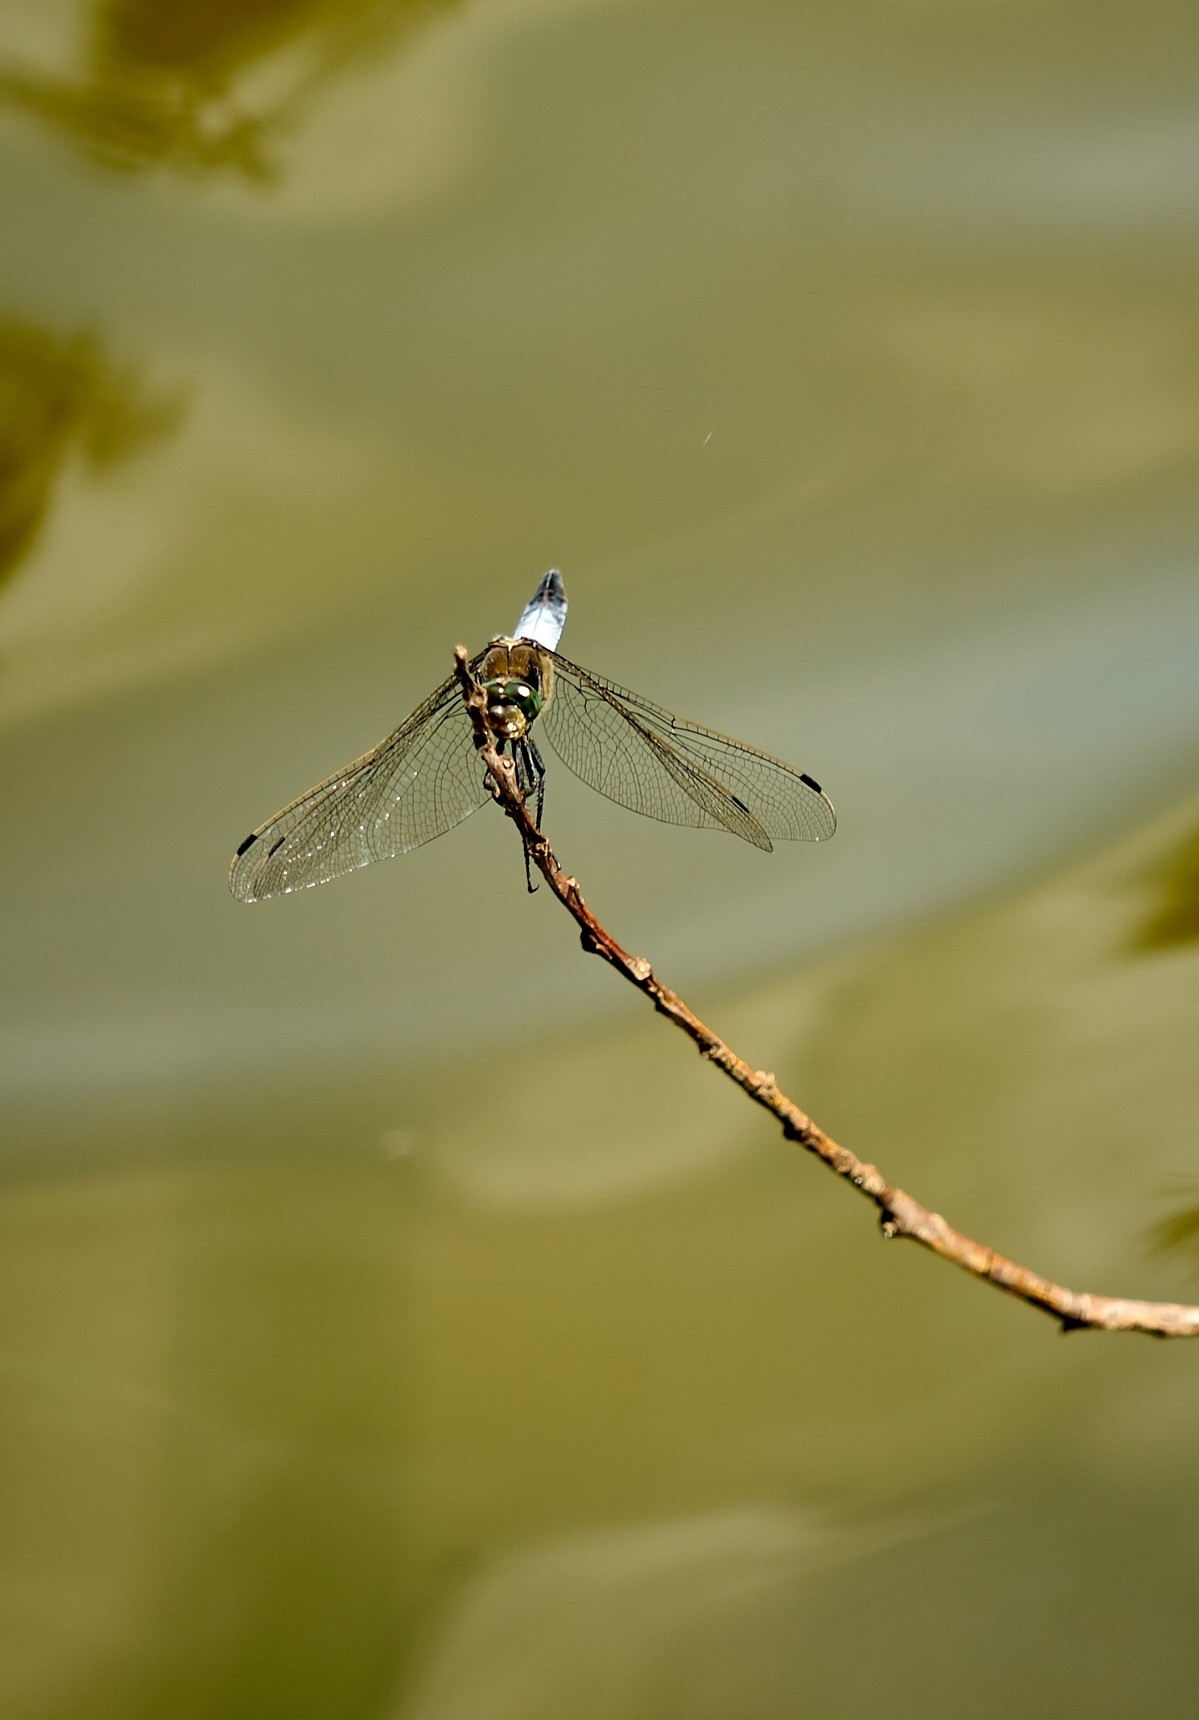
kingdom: Animalia
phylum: Arthropoda
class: Insecta
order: Odonata
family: Libellulidae
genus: Orthetrum
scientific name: Orthetrum cancellatum
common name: Black-tailed skimmer
